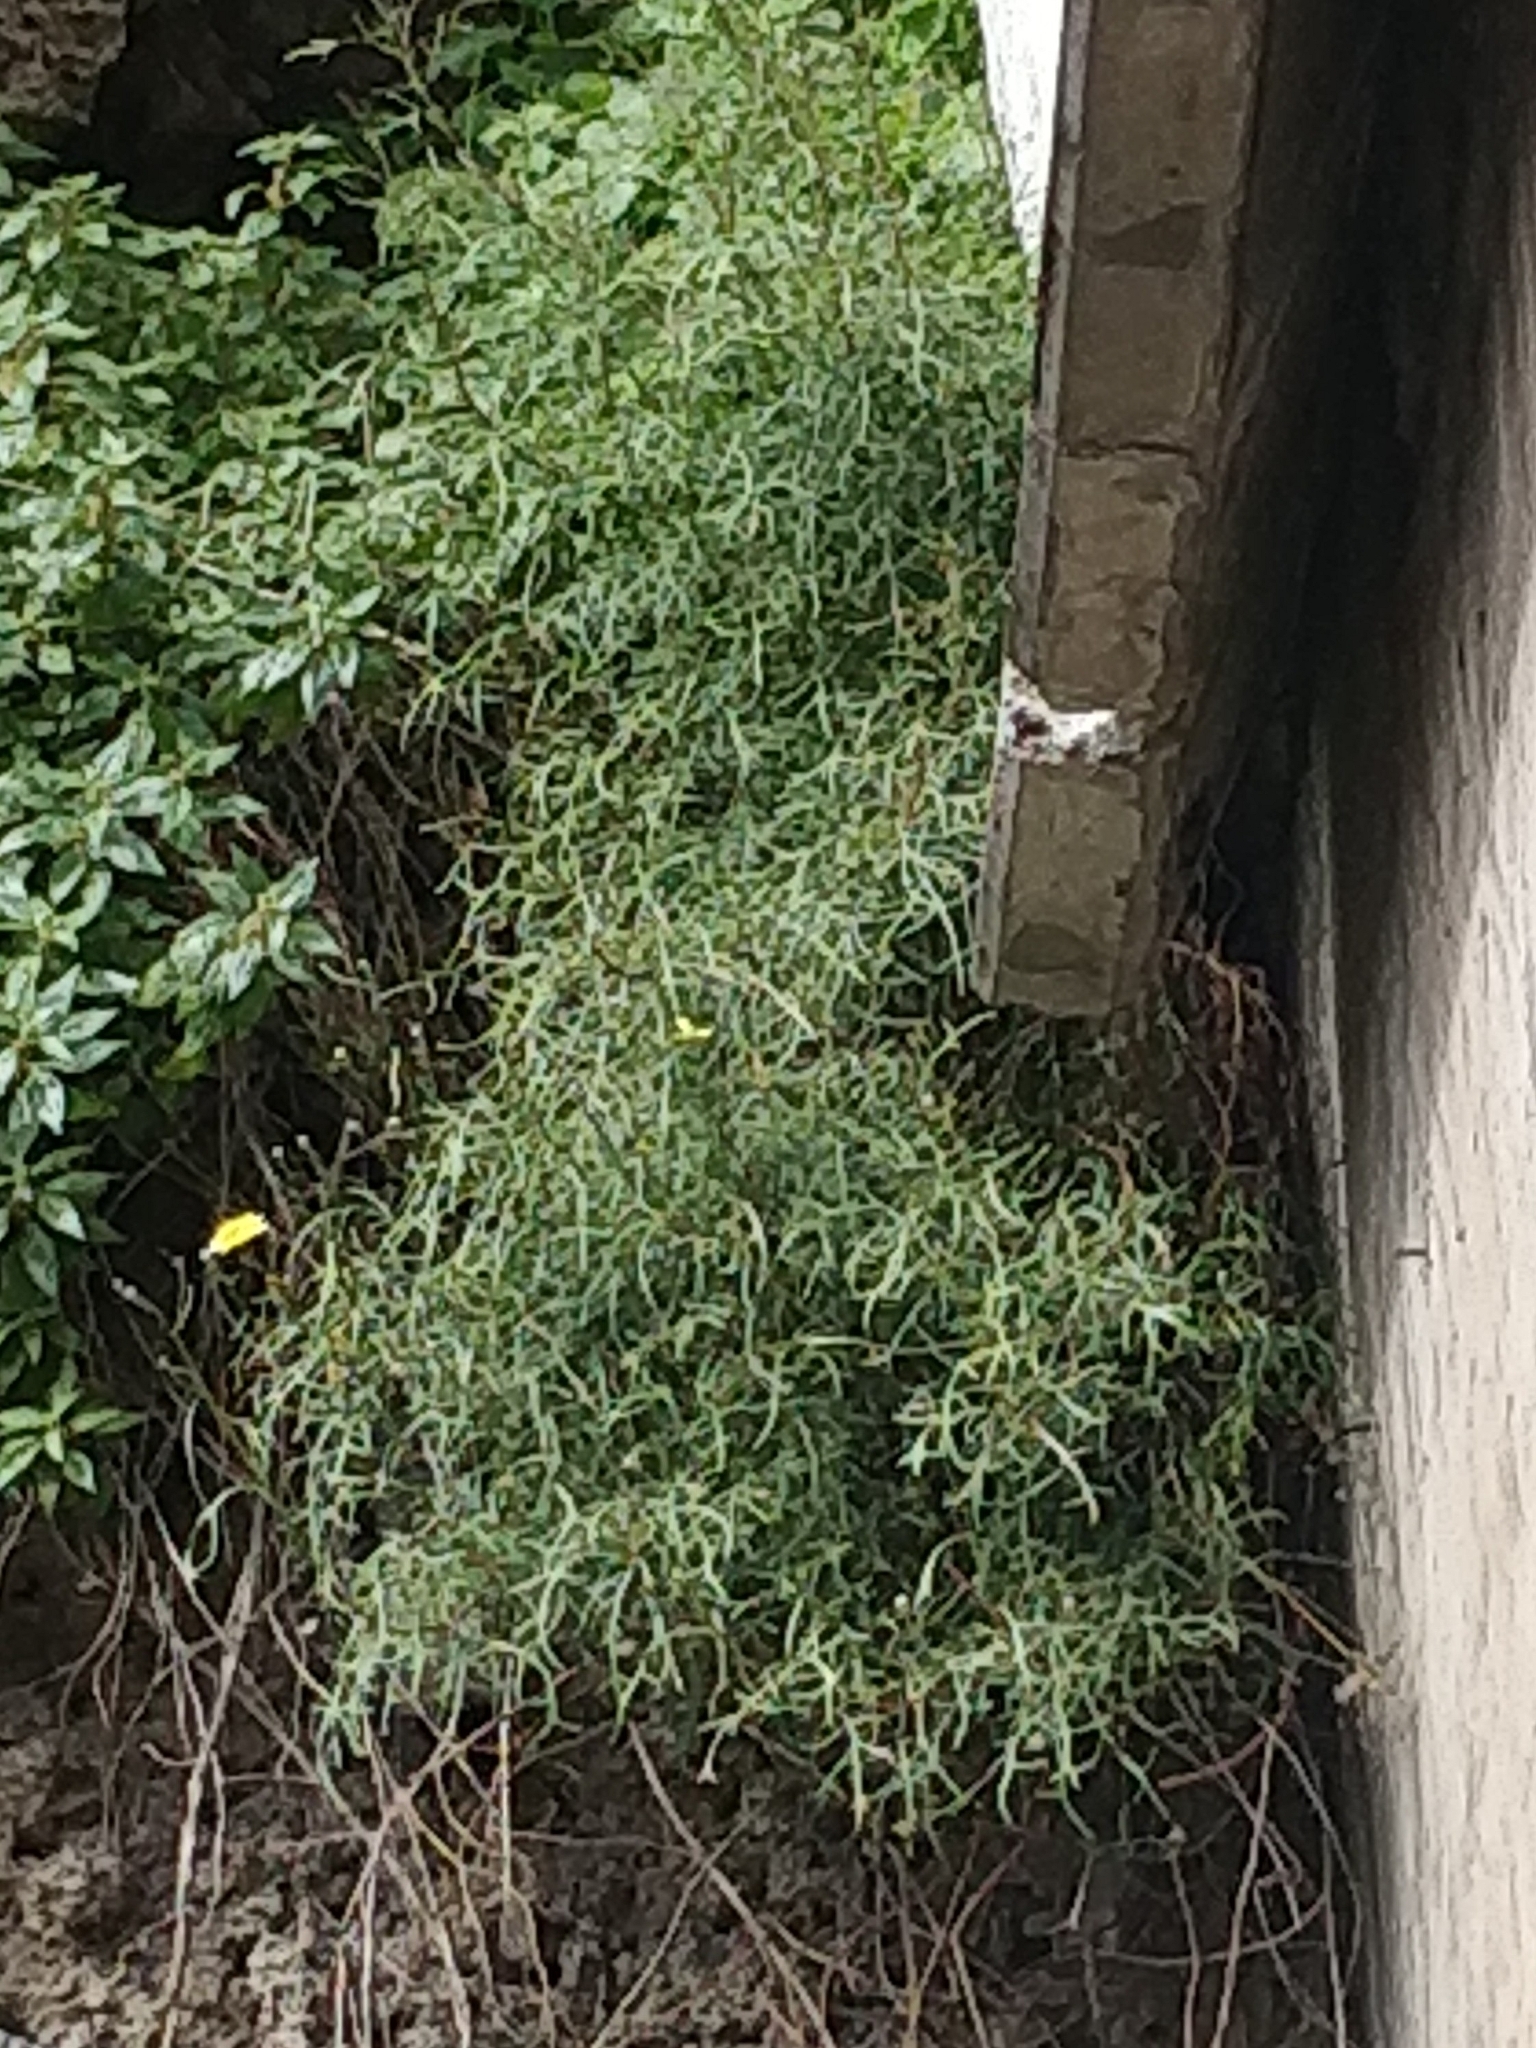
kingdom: Plantae
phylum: Tracheophyta
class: Magnoliopsida
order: Asterales
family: Asteraceae
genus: Tolpis
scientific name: Tolpis succulenta
